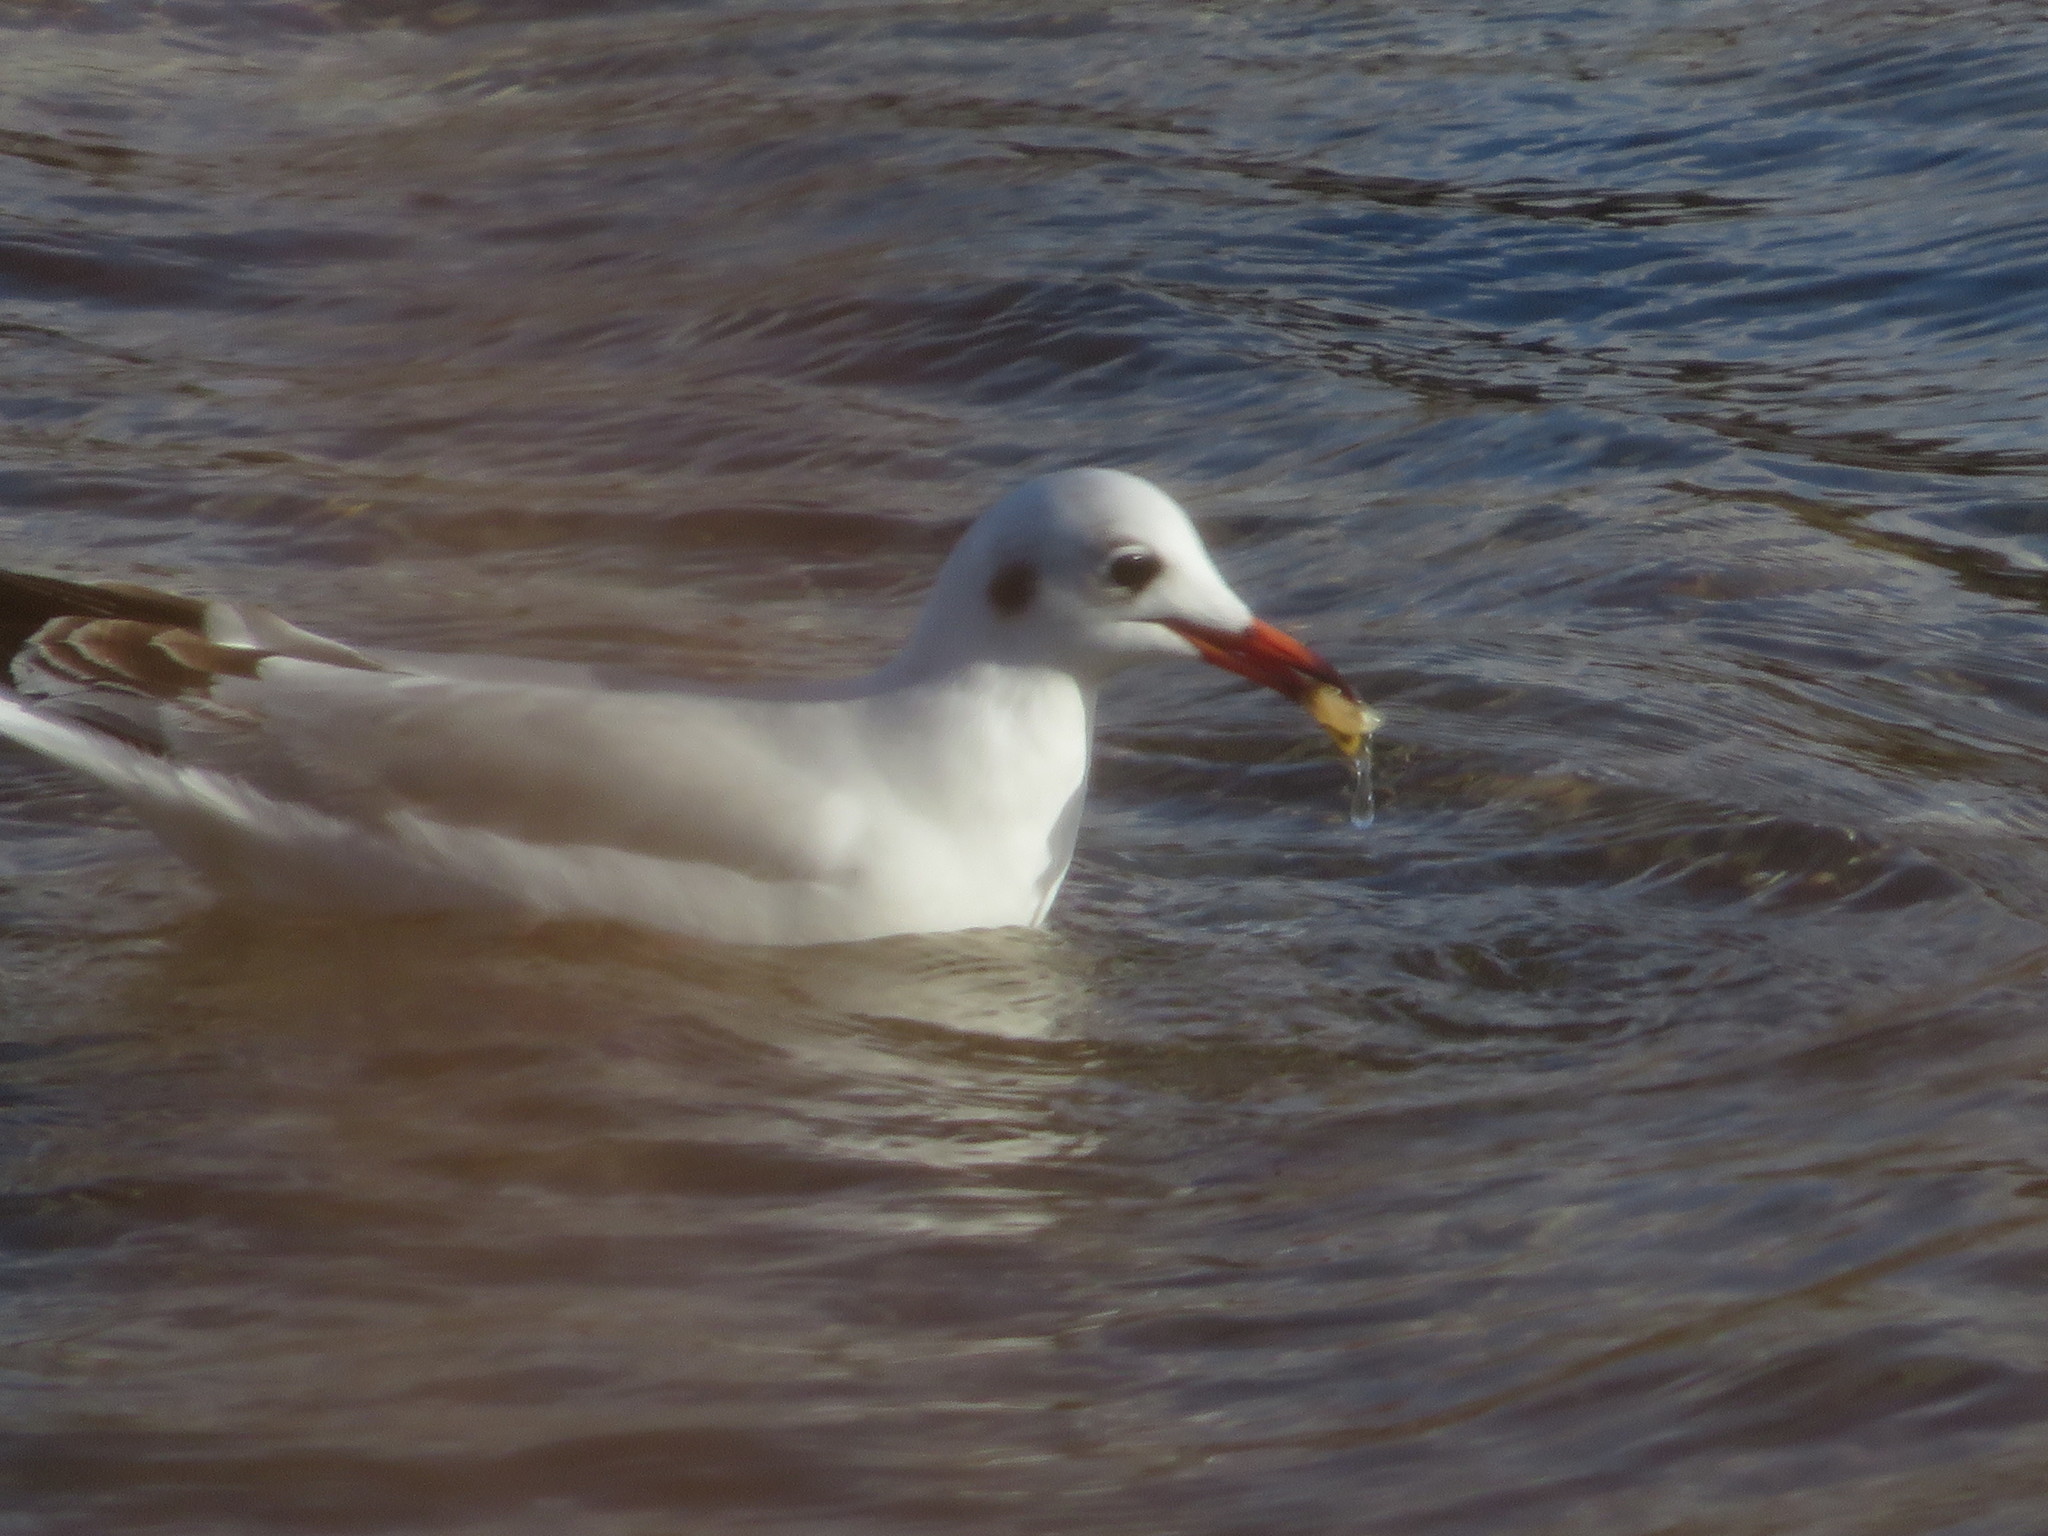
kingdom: Animalia
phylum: Chordata
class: Aves
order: Charadriiformes
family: Laridae
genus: Chroicocephalus
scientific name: Chroicocephalus ridibundus
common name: Black-headed gull
